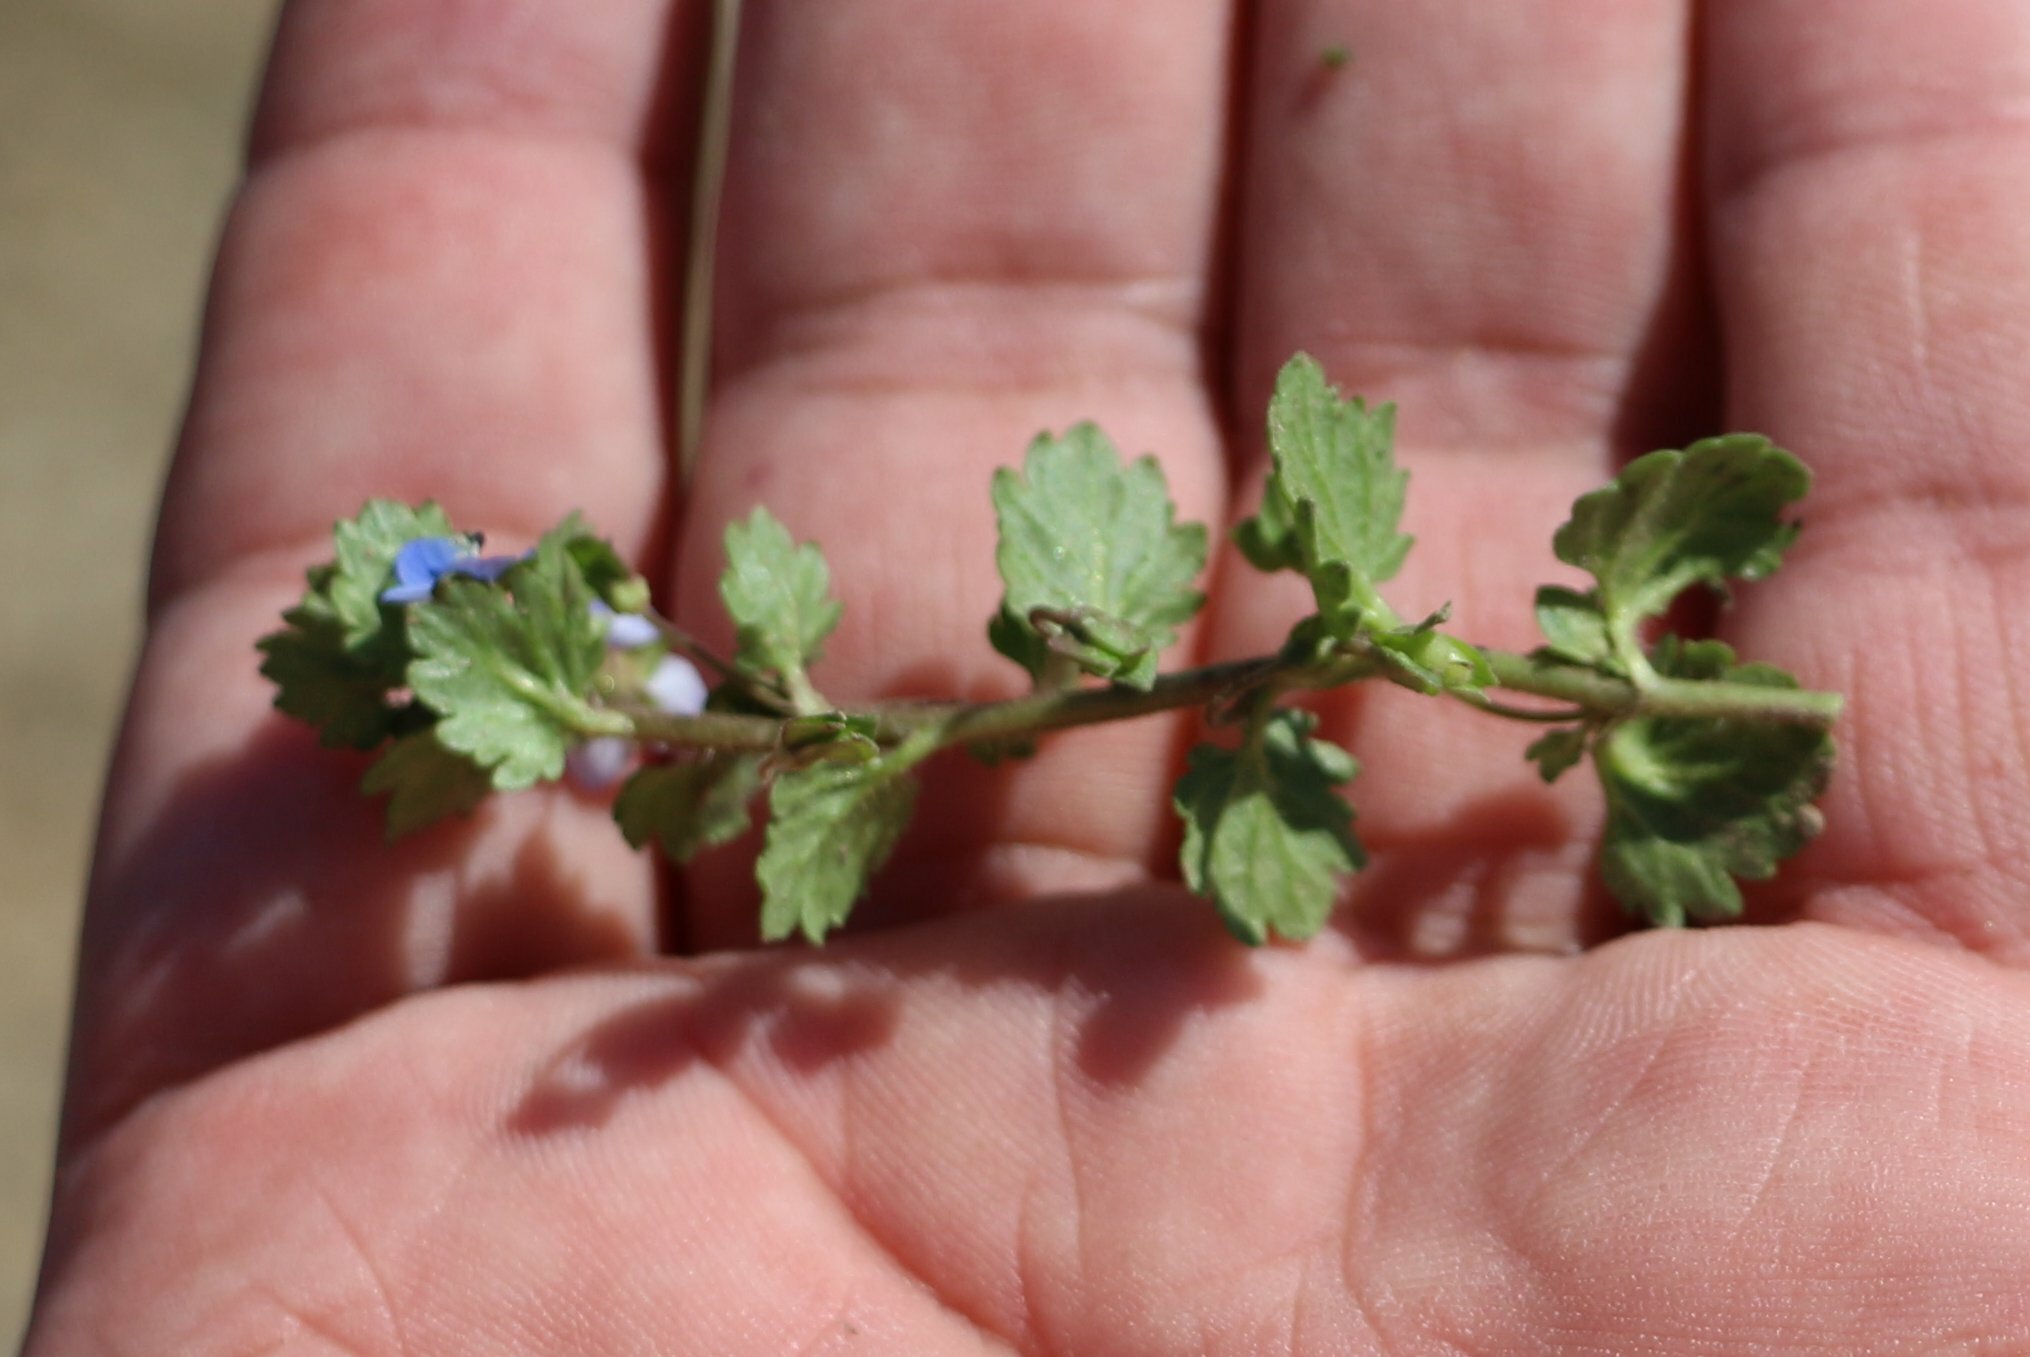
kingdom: Plantae
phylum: Tracheophyta
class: Magnoliopsida
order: Lamiales
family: Plantaginaceae
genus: Veronica
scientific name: Veronica polita
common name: Grey field-speedwell
